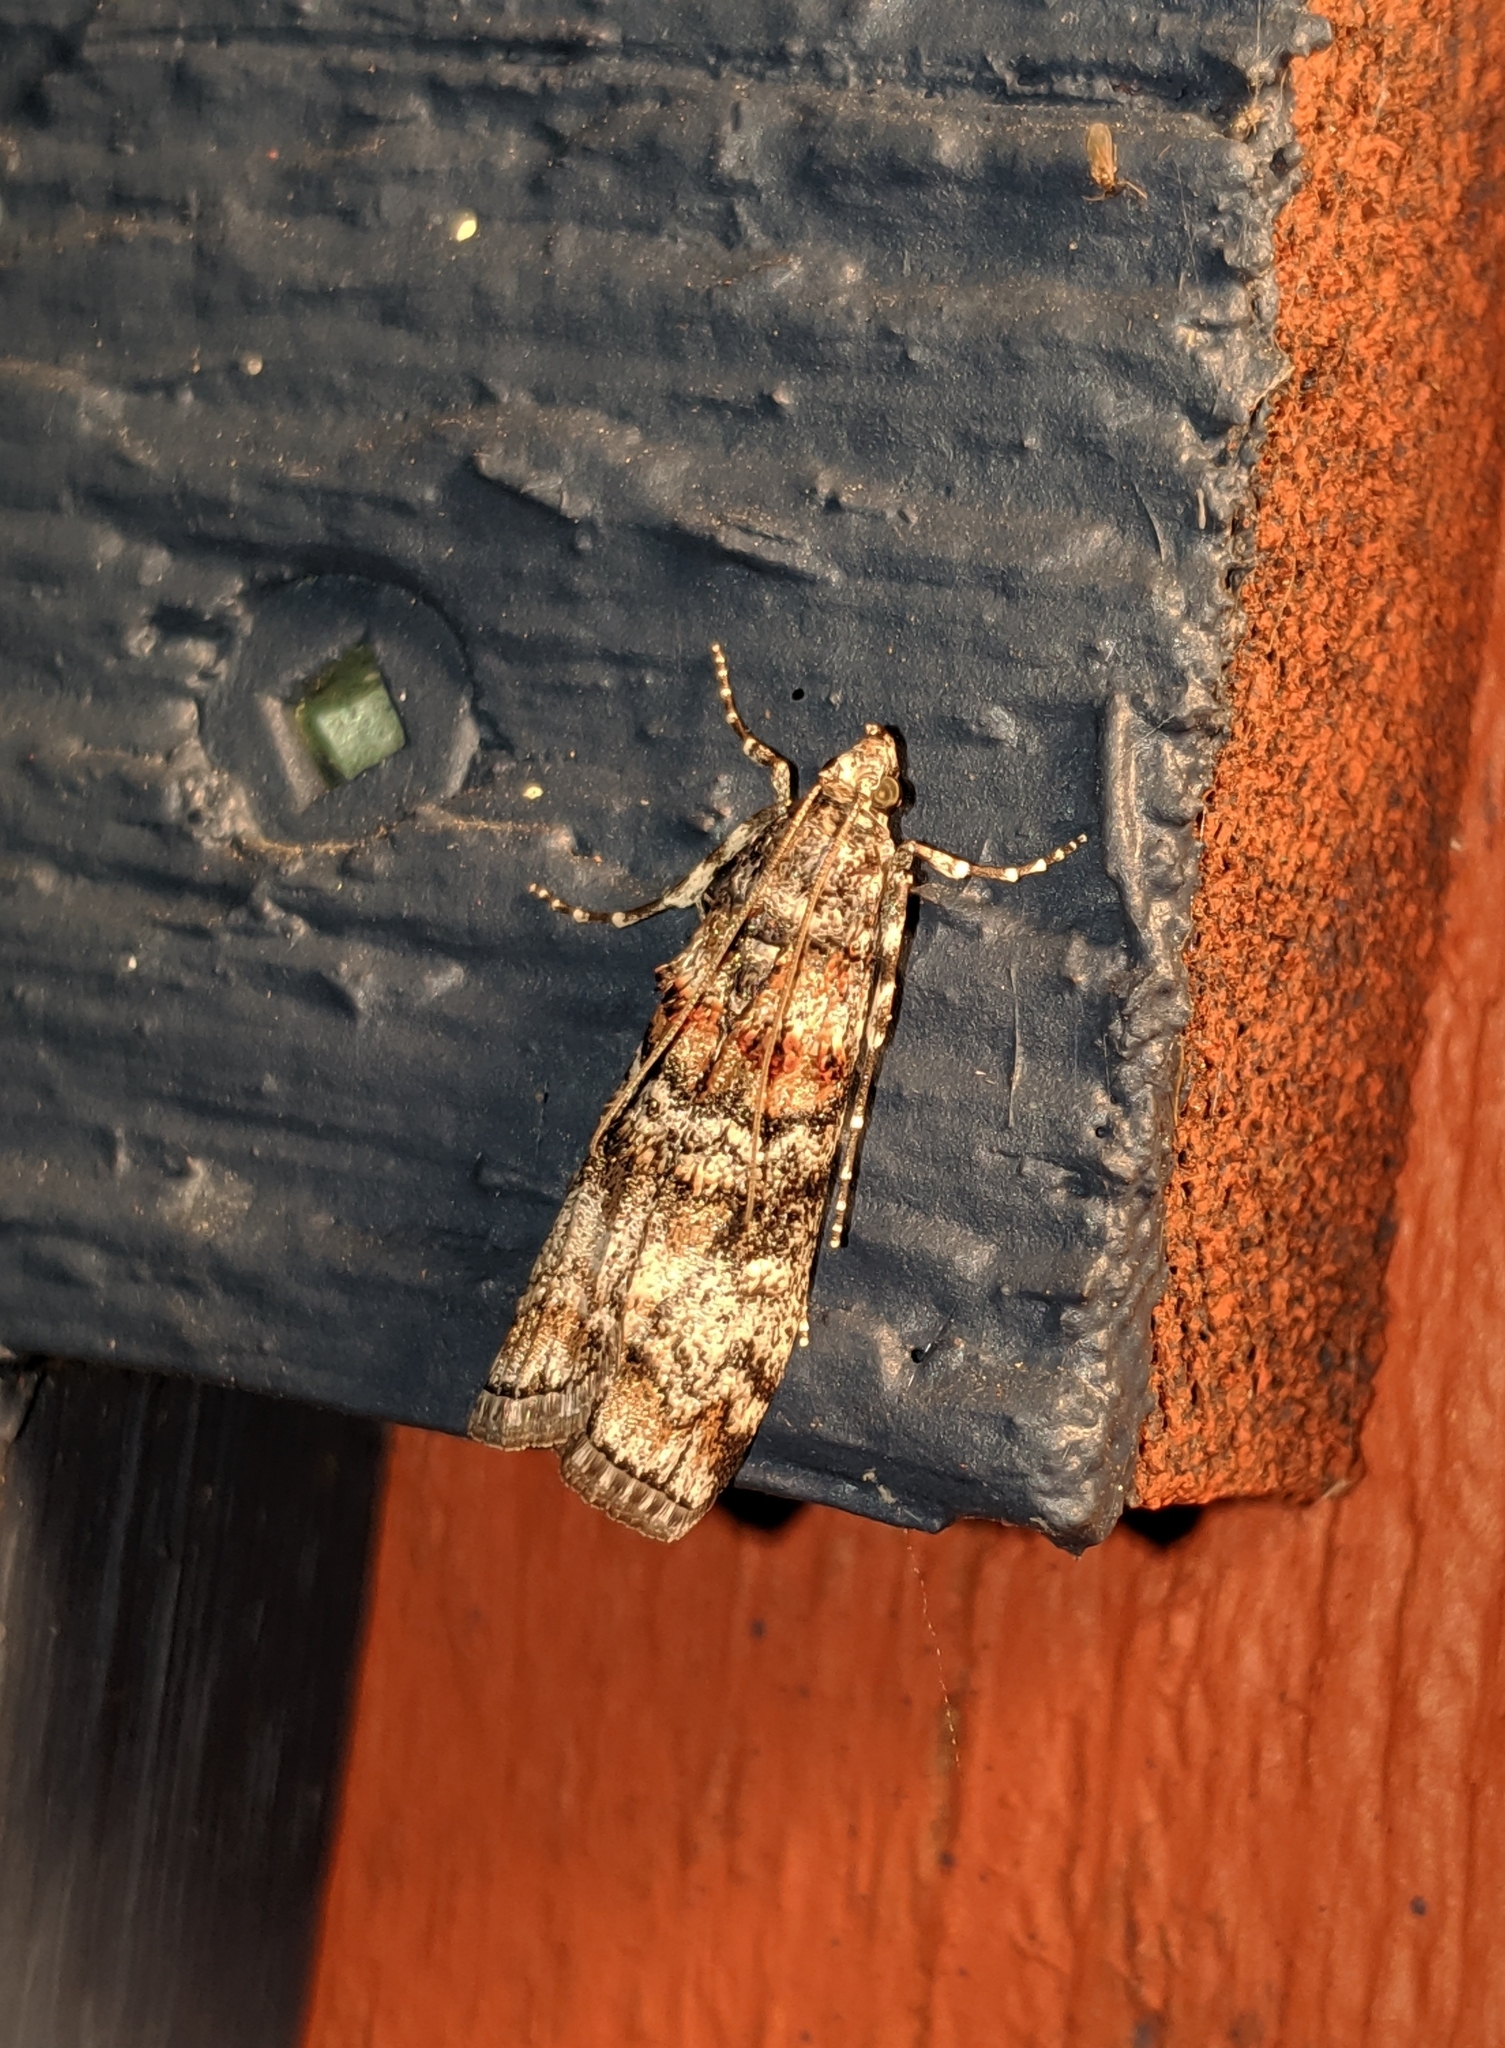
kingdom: Animalia
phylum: Arthropoda
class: Insecta
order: Lepidoptera
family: Pyralidae
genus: Dioryctria
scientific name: Dioryctria banksiella
